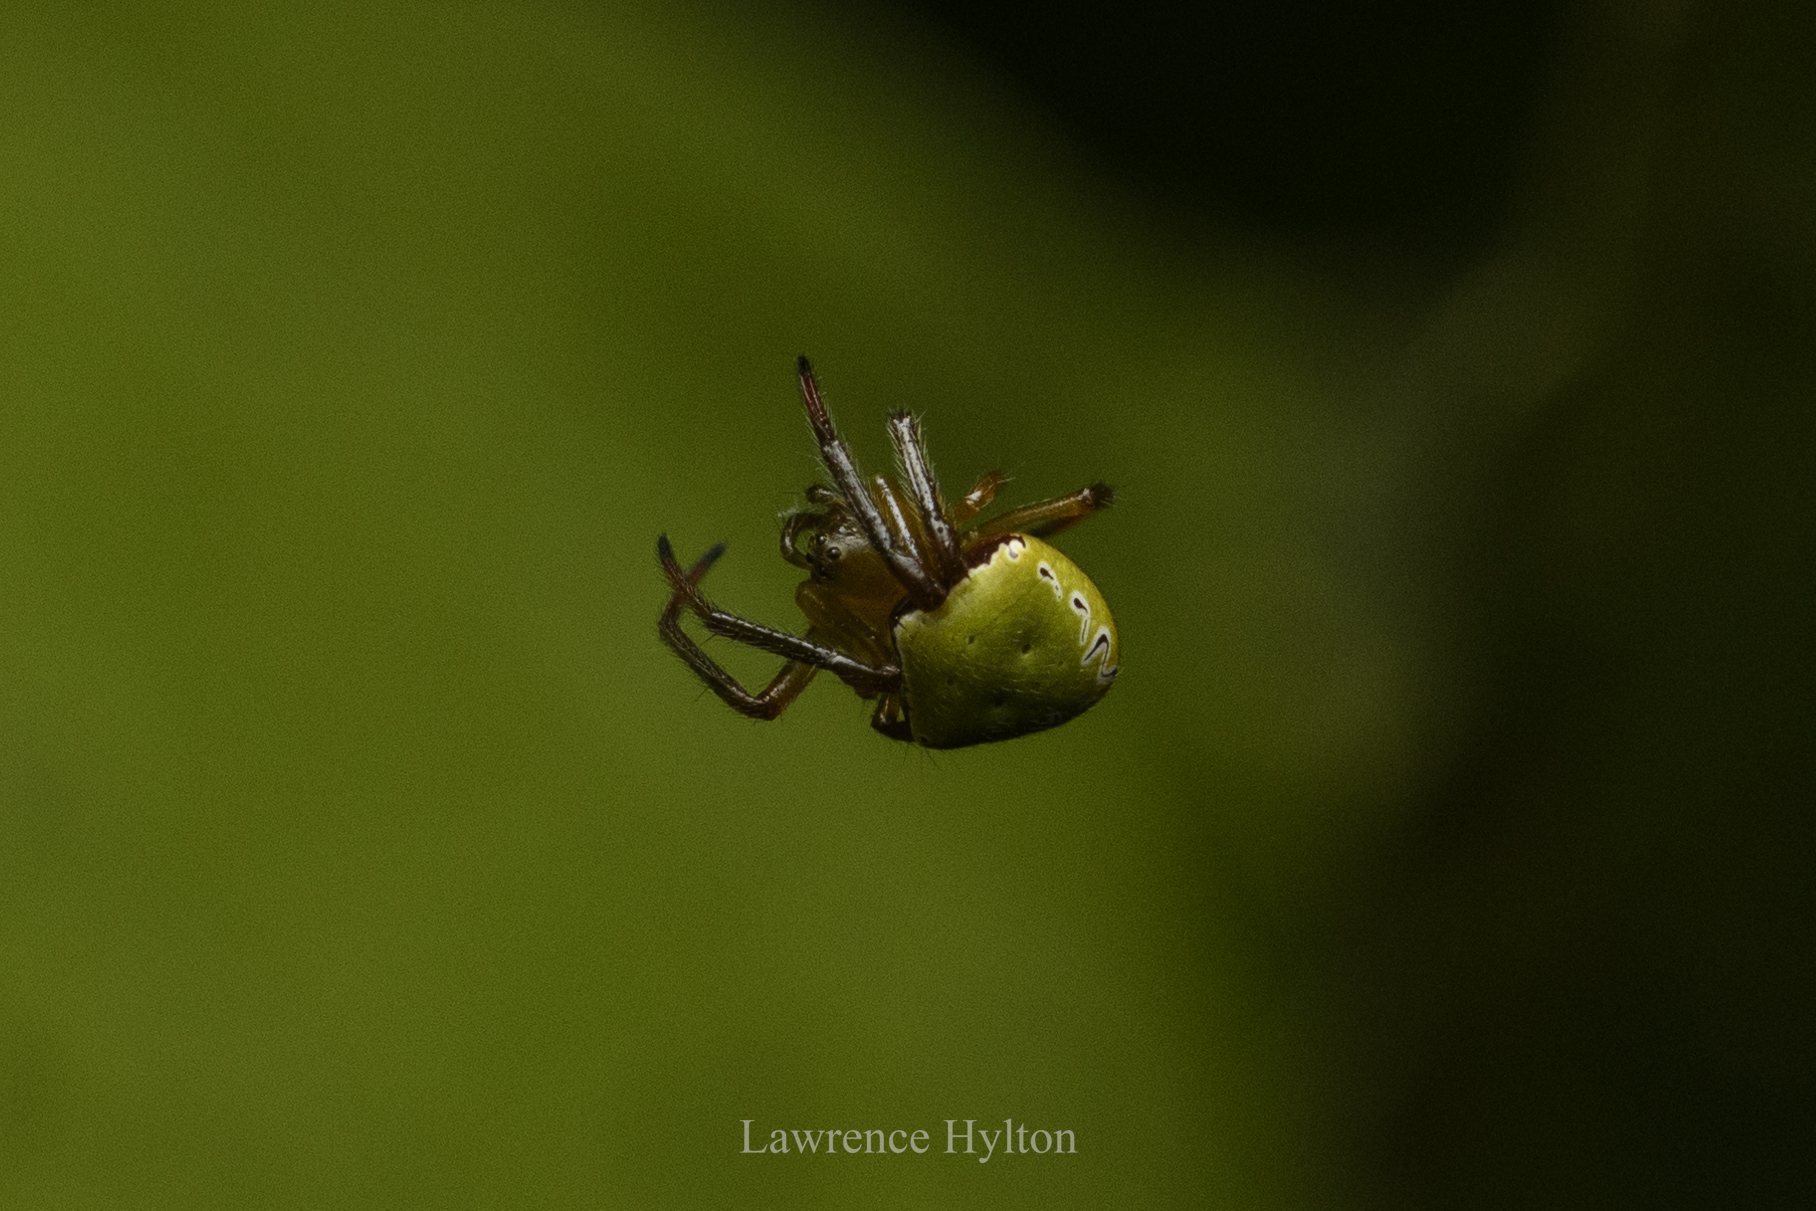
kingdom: Animalia
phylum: Arthropoda
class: Arachnida
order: Araneae
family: Araneidae
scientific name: Araneidae
